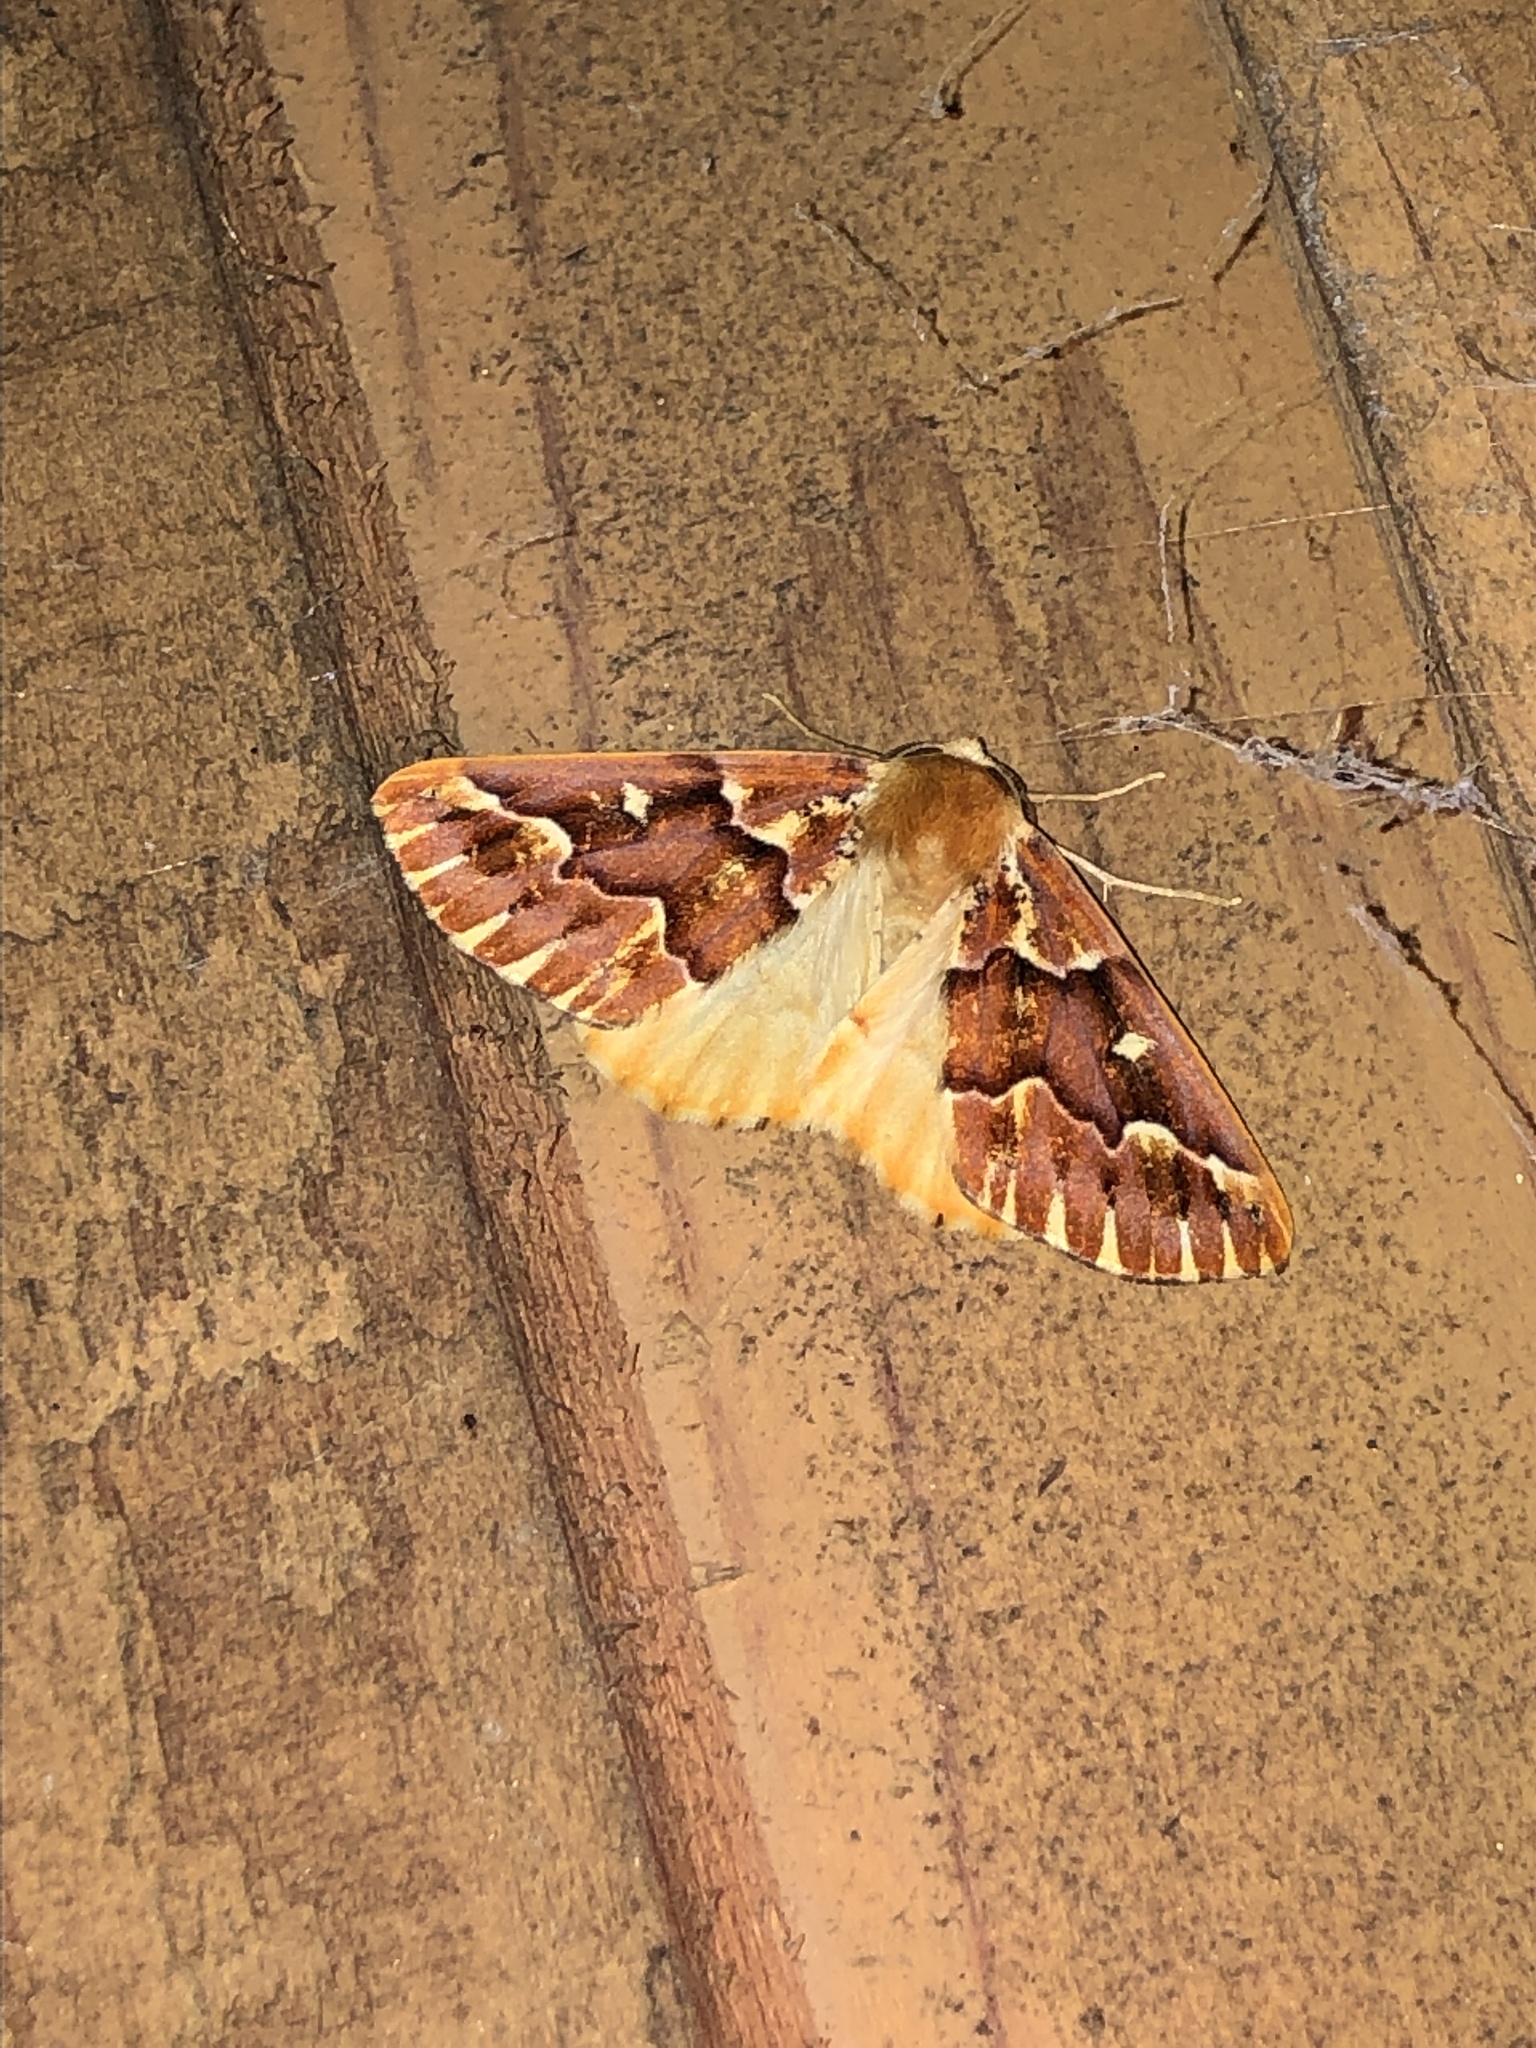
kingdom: Animalia
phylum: Arthropoda
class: Insecta
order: Lepidoptera
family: Geometridae
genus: Caripeta
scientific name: Caripeta aequaliaria
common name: Red girdle moth
